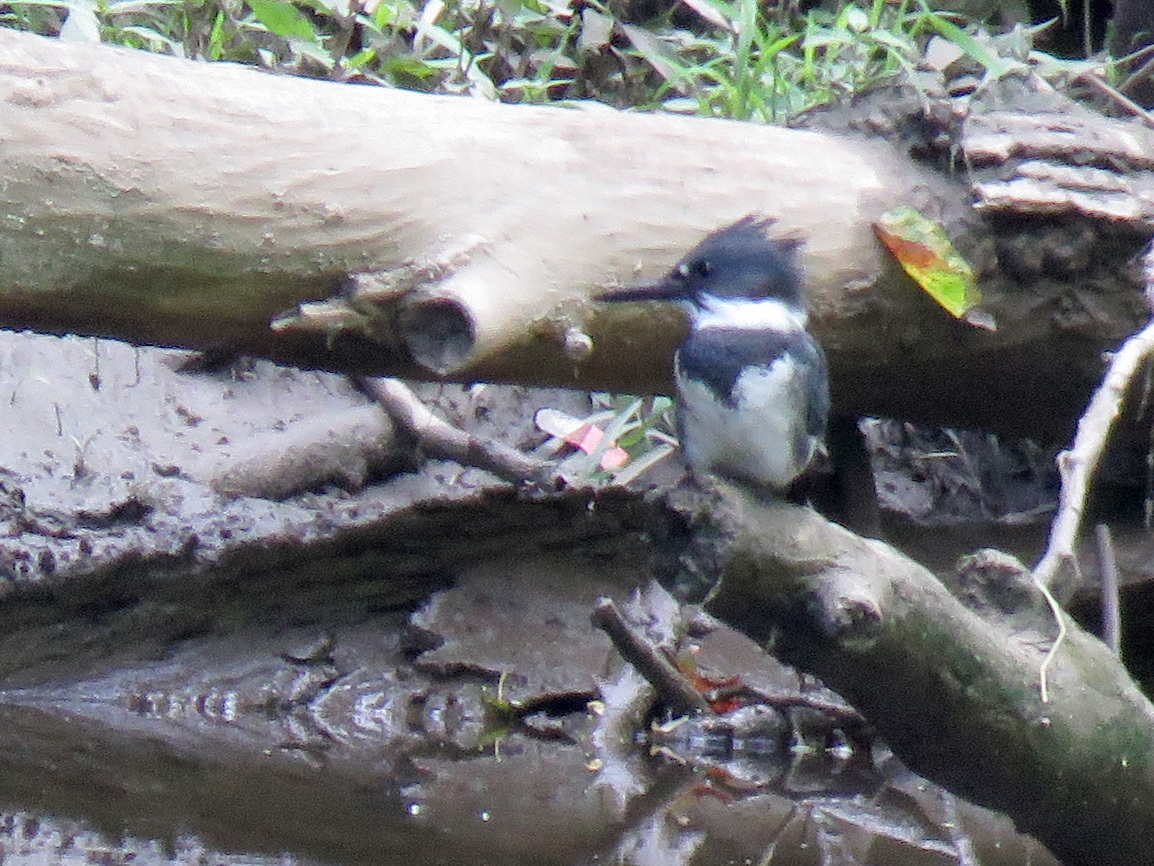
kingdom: Animalia
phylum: Chordata
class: Aves
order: Coraciiformes
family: Alcedinidae
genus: Megaceryle
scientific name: Megaceryle alcyon
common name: Belted kingfisher
